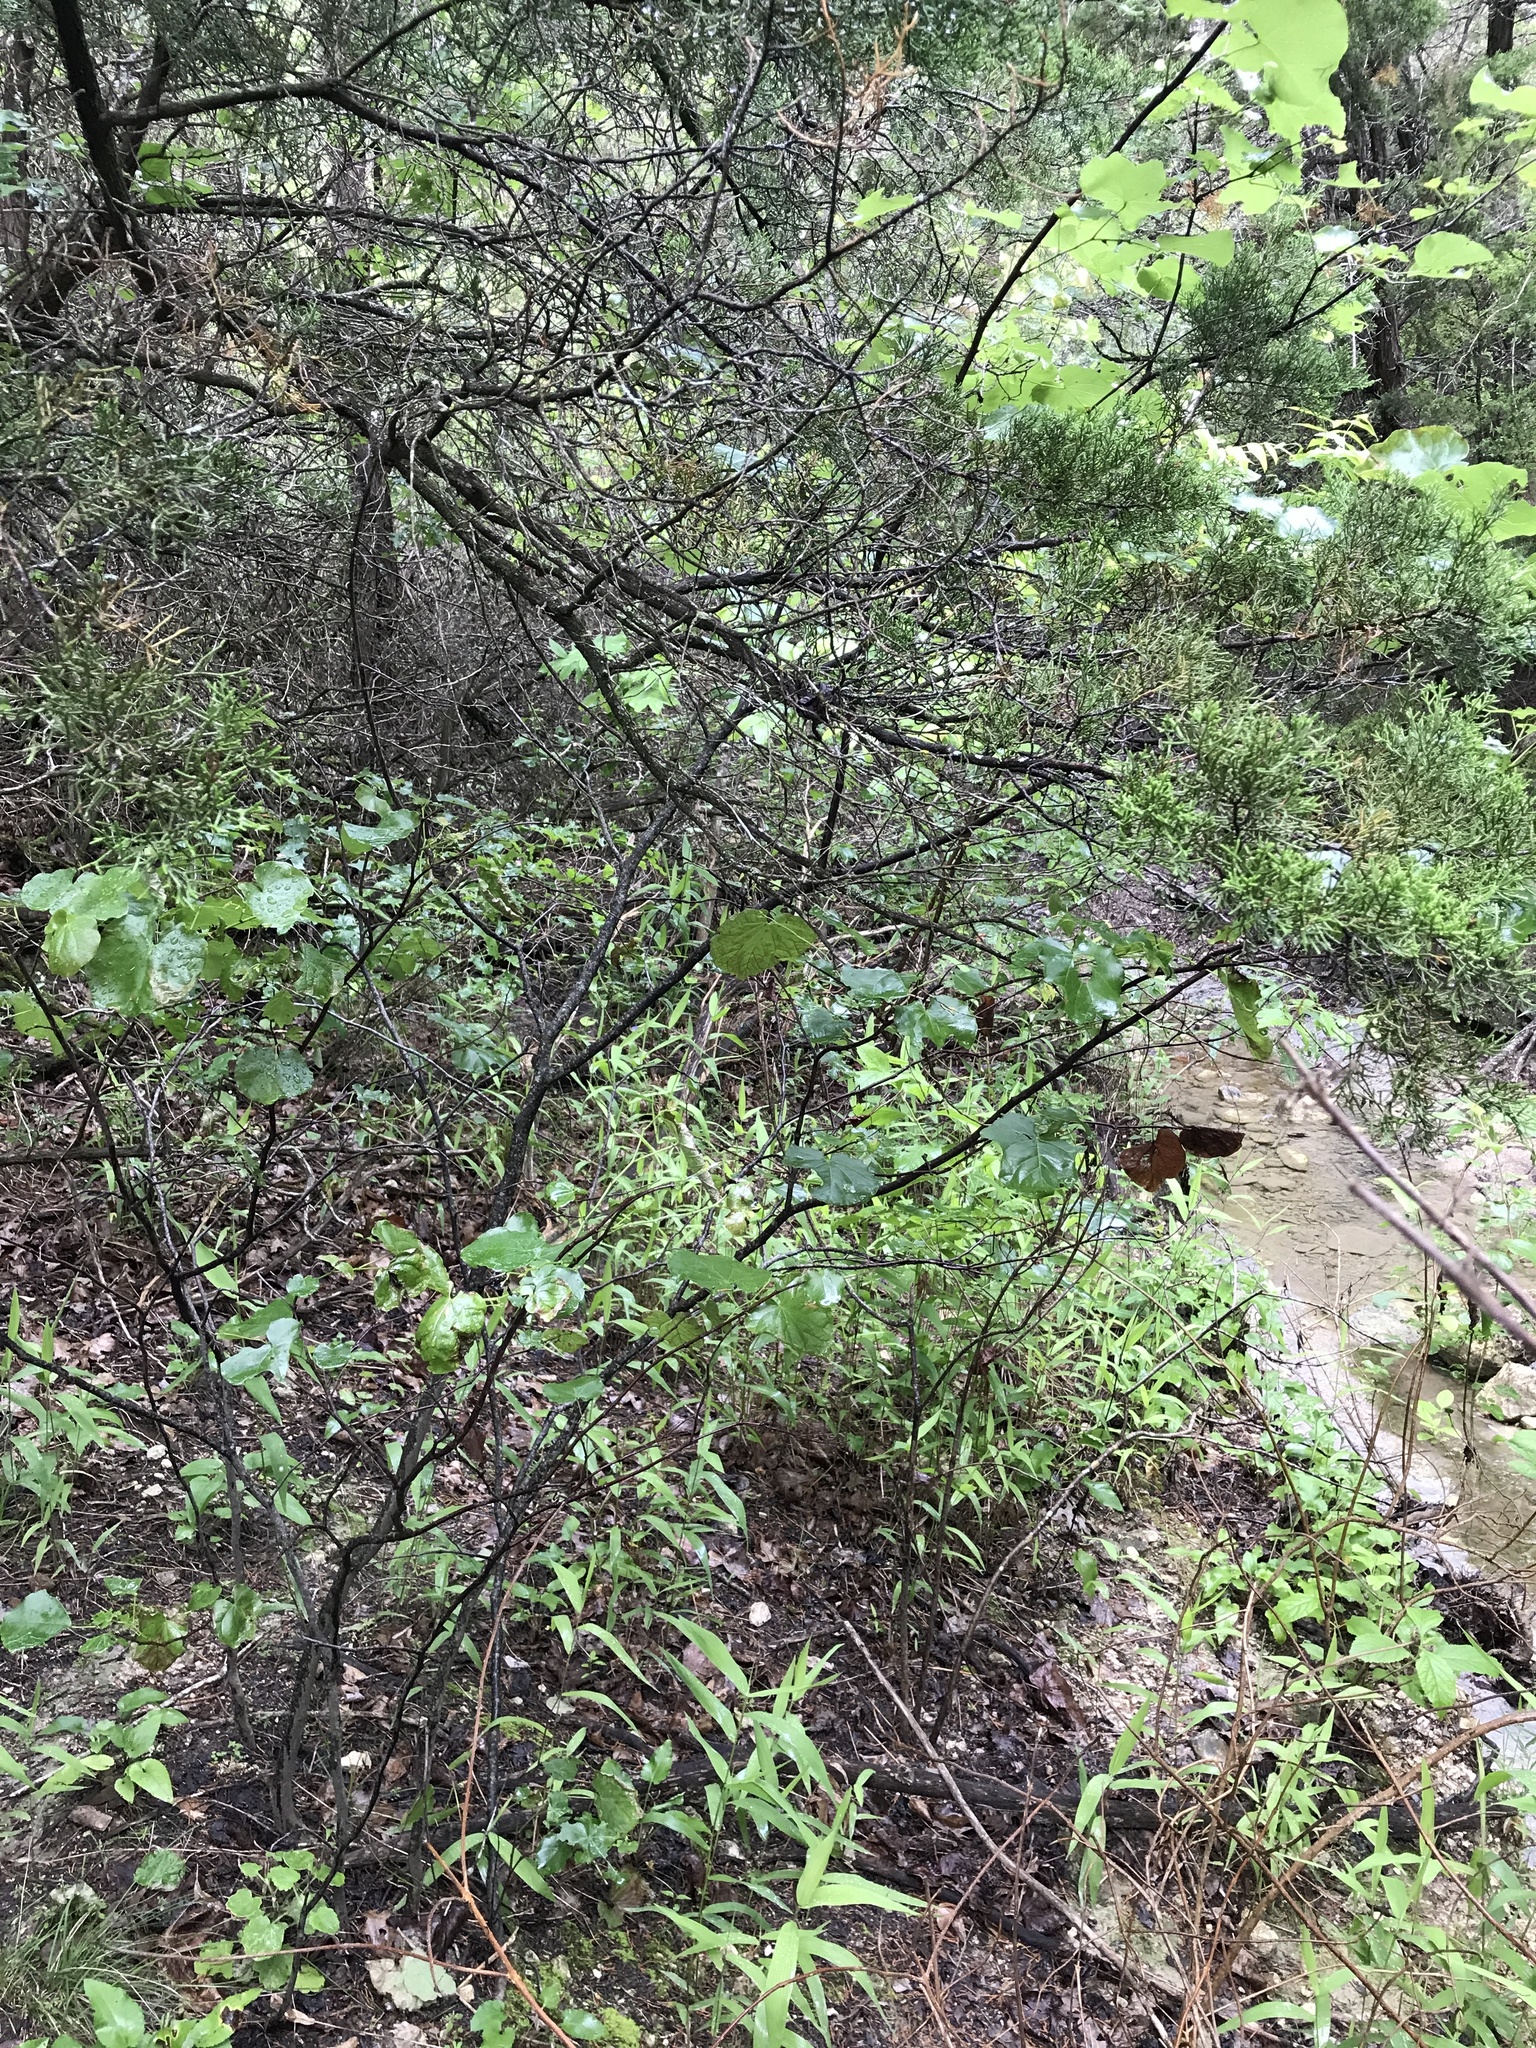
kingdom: Plantae
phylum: Tracheophyta
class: Magnoliopsida
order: Fabales
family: Fabaceae
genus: Cercis
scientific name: Cercis canadensis
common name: Eastern redbud
